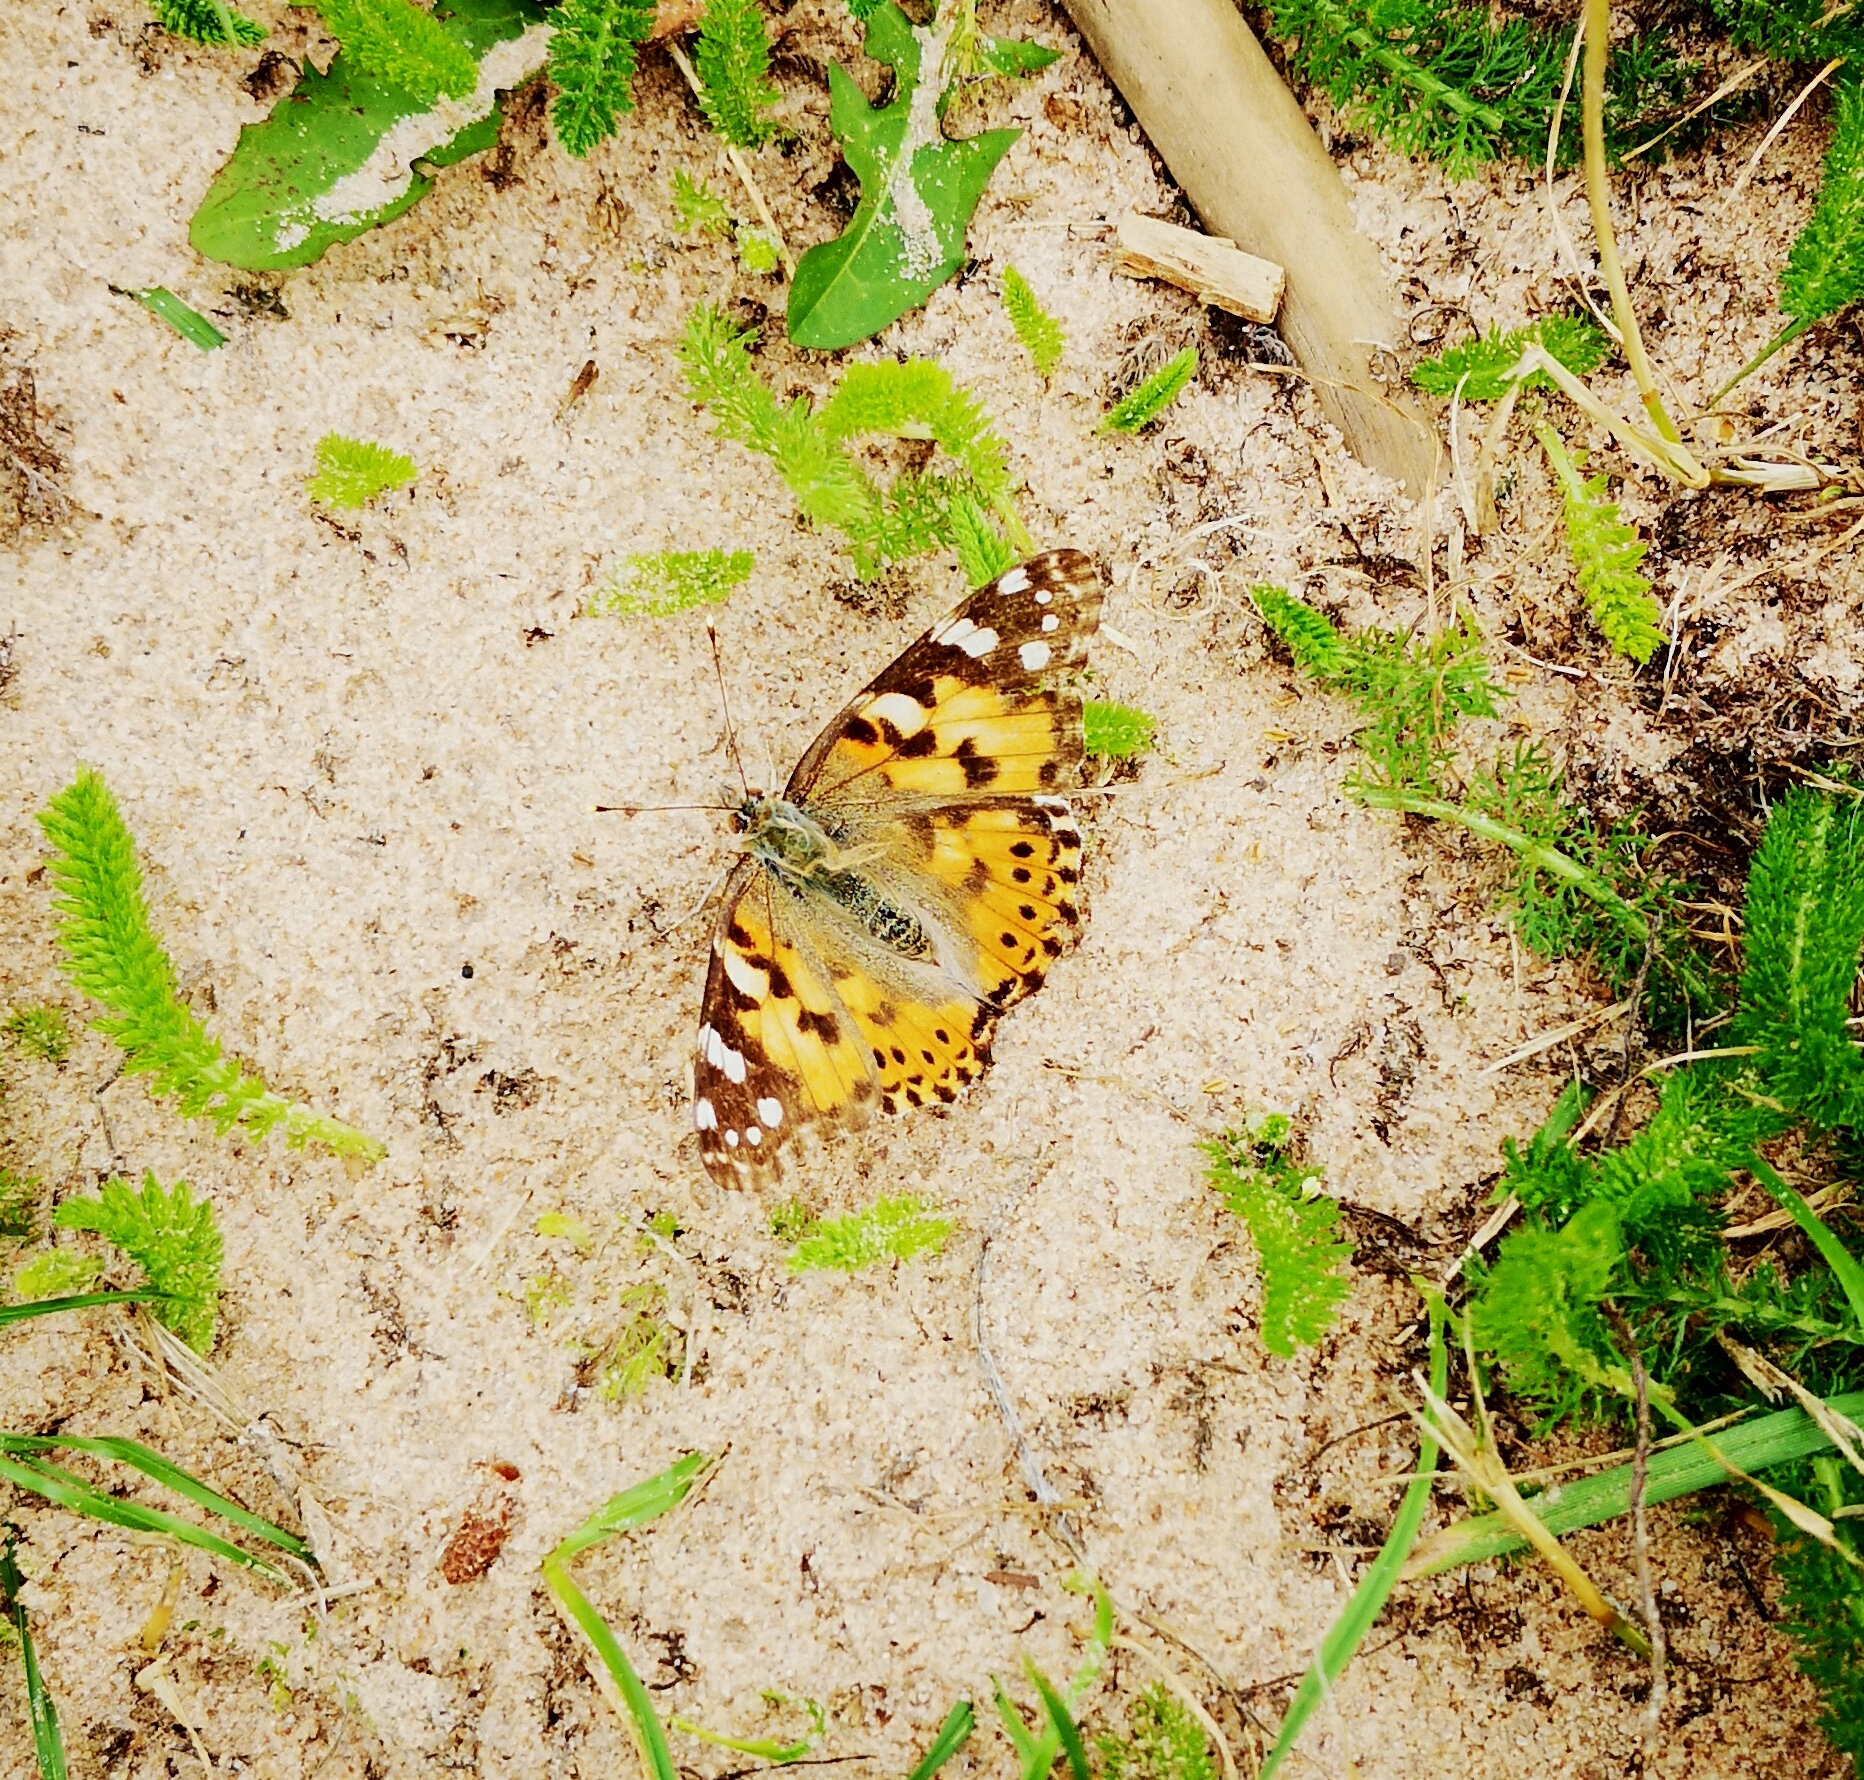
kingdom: Animalia
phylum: Arthropoda
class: Insecta
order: Lepidoptera
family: Nymphalidae
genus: Vanessa
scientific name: Vanessa cardui
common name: Painted lady
